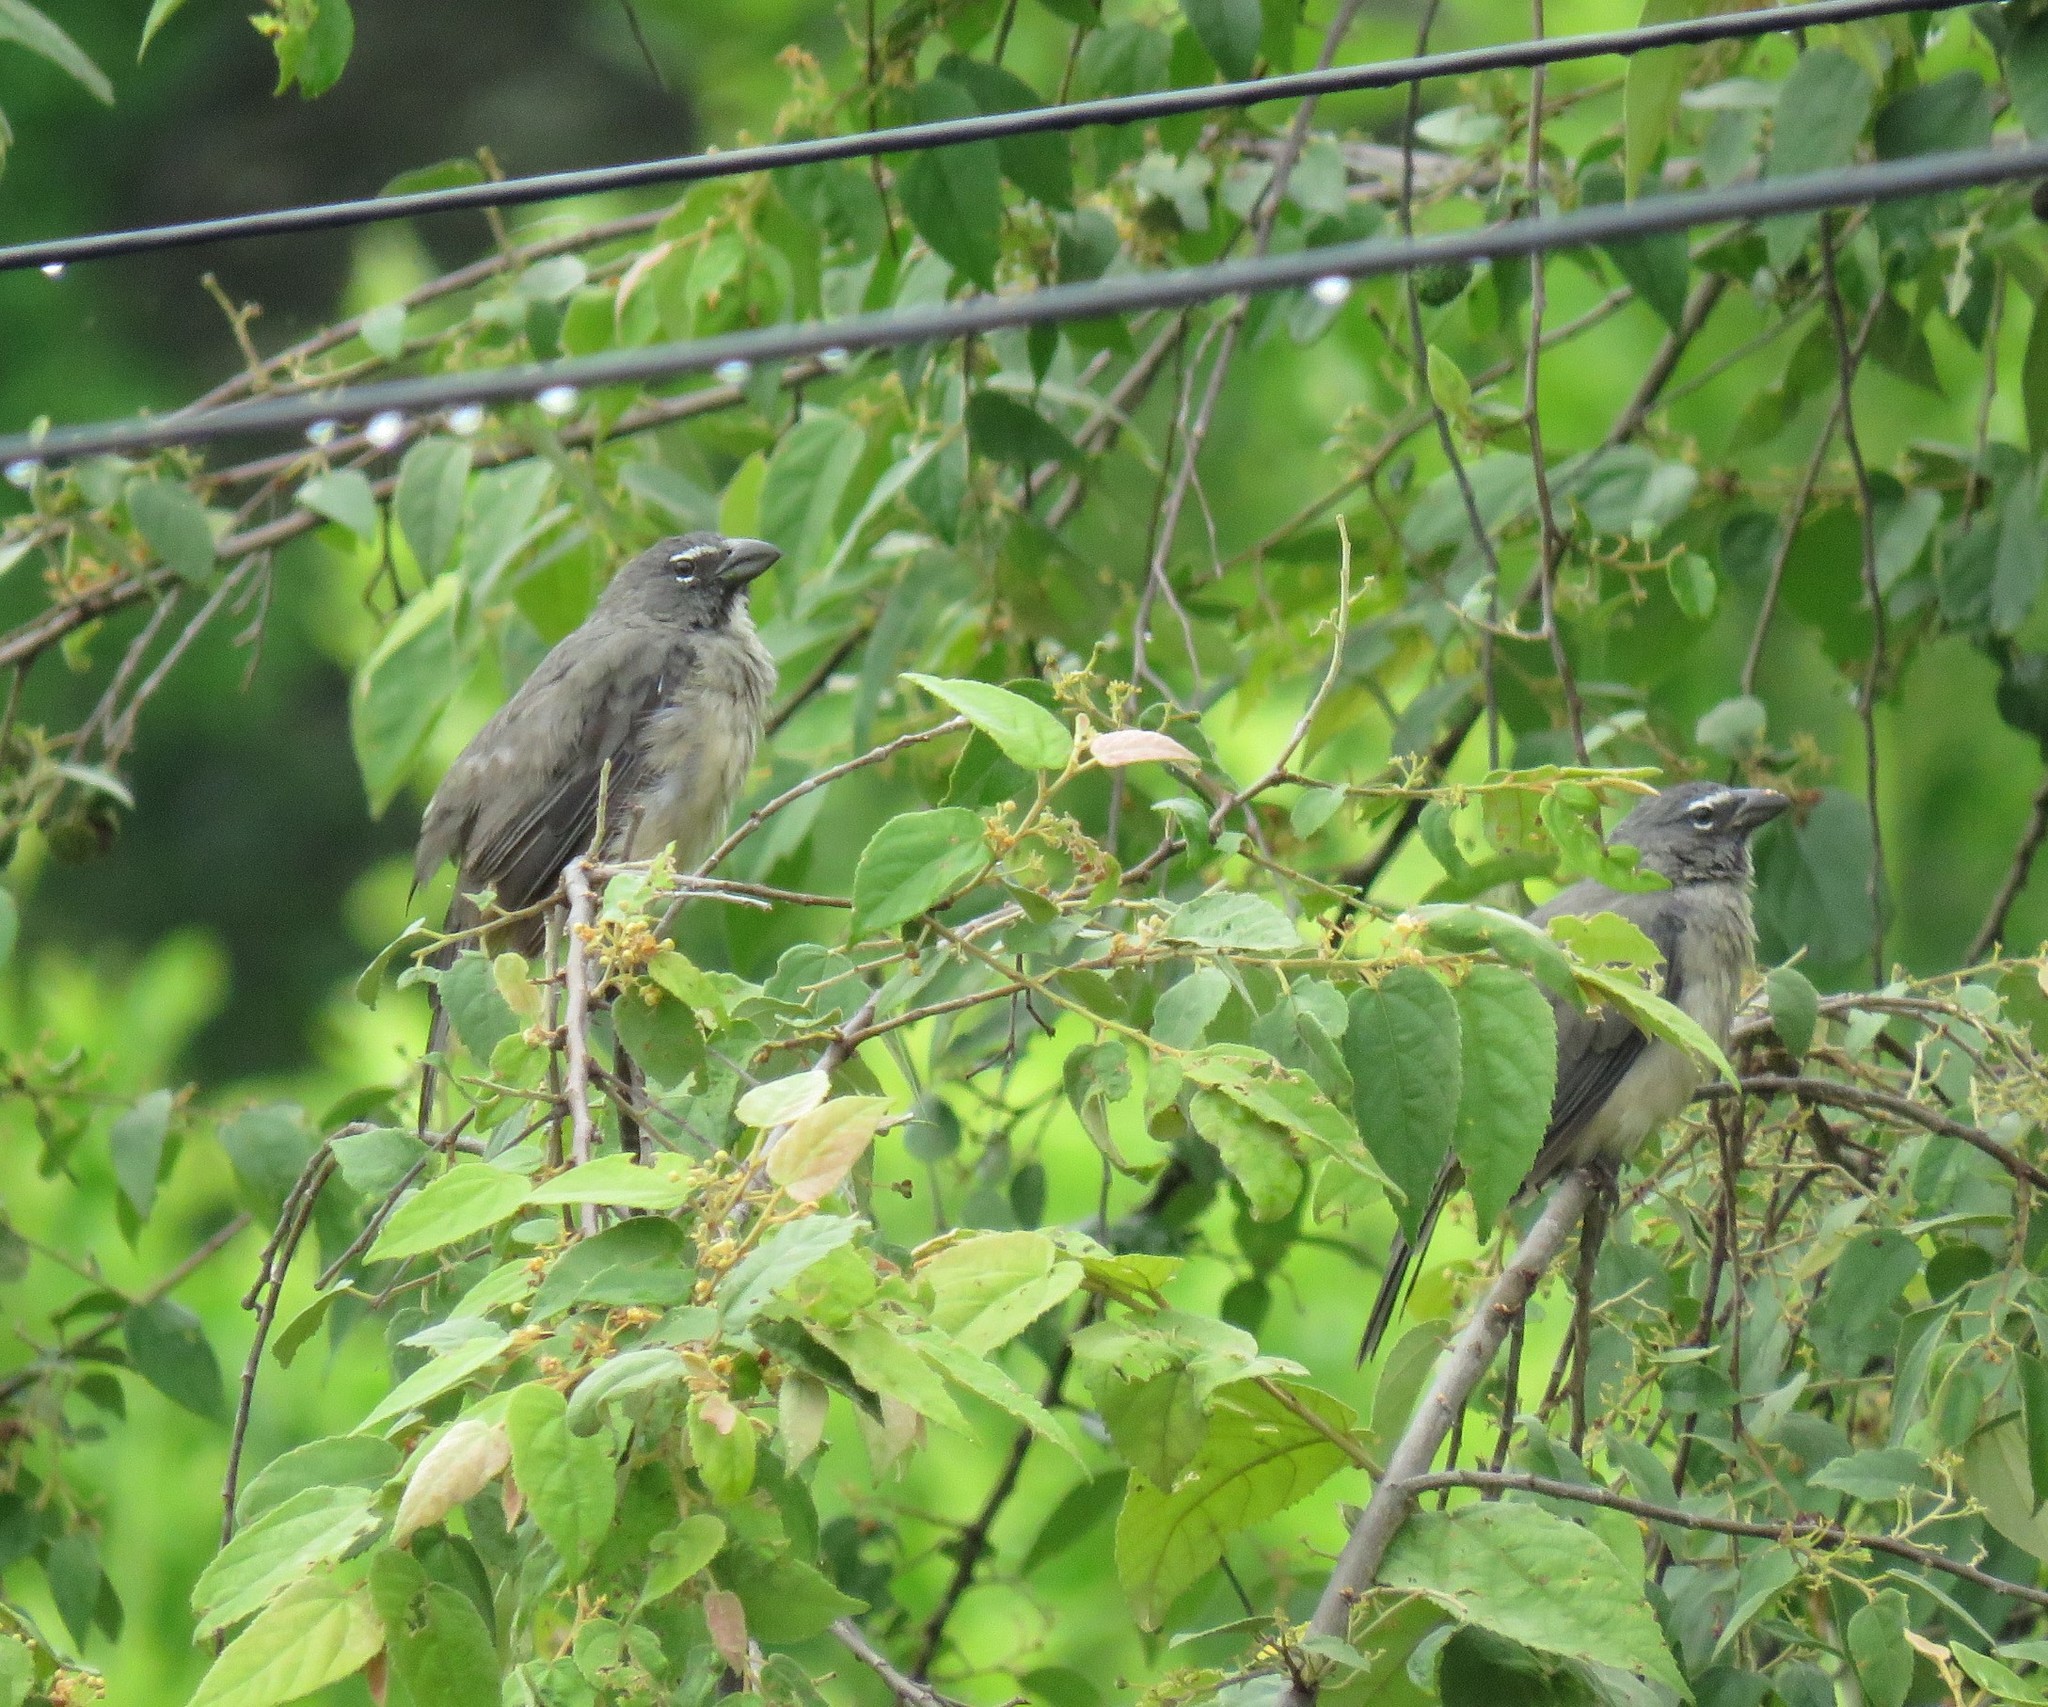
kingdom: Animalia
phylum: Chordata
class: Aves
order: Passeriformes
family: Thraupidae
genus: Saltator
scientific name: Saltator olivascens
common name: Caribbean grey saltator
